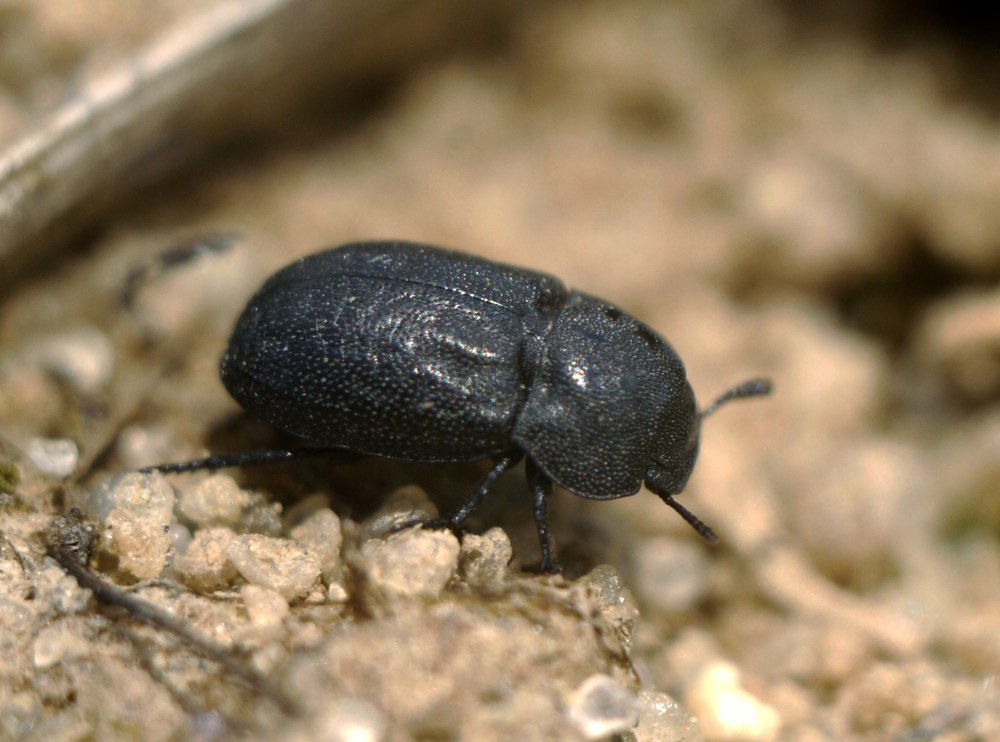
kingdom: Animalia
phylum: Arthropoda
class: Insecta
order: Coleoptera
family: Tenebrionidae
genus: Melanimon
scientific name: Melanimon tibialis
